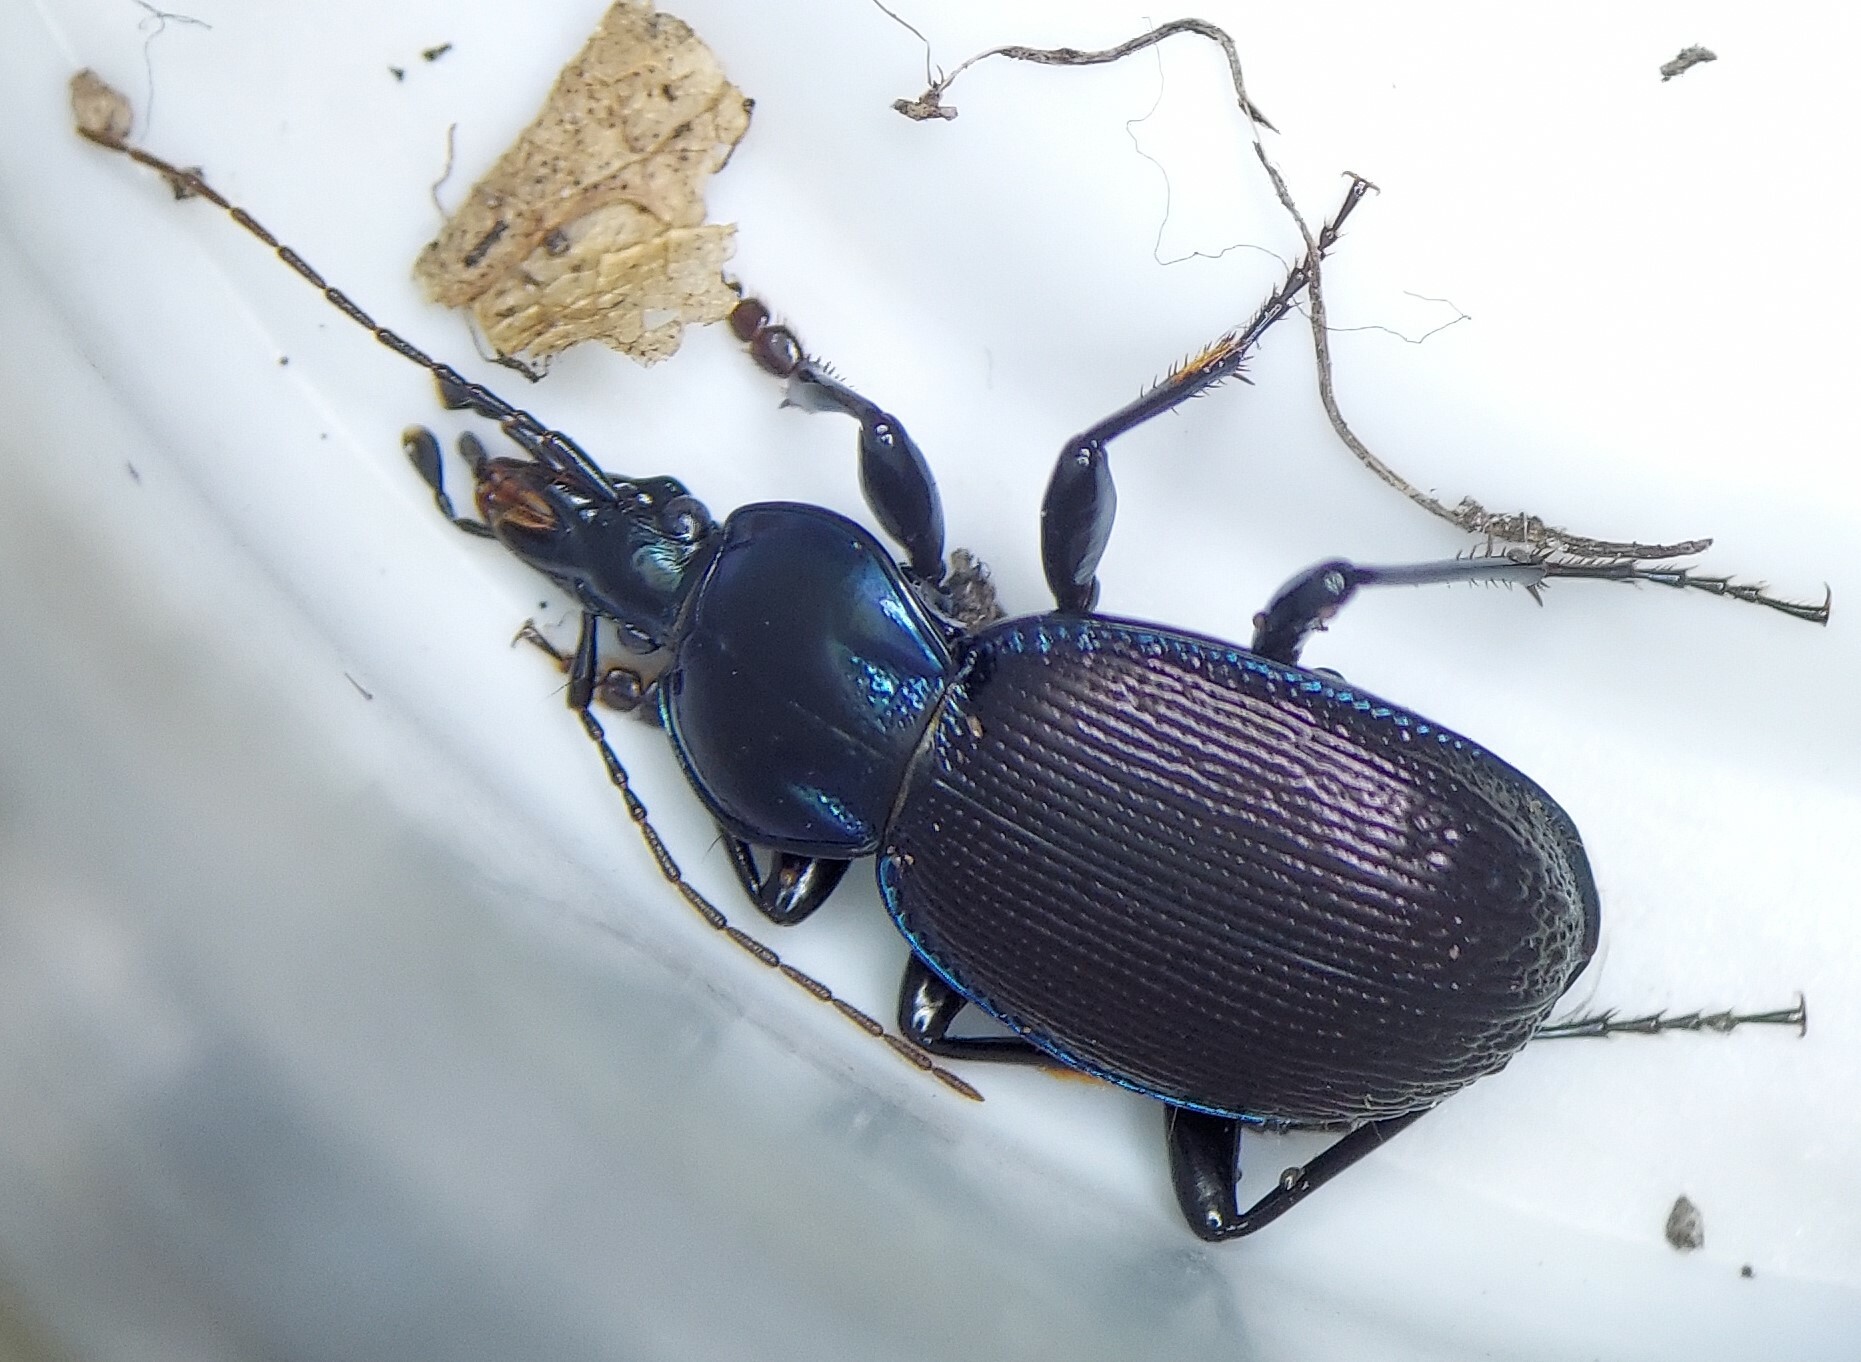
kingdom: Animalia
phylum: Arthropoda
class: Insecta
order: Coleoptera
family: Carabidae
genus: Sphaeroderus
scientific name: Sphaeroderus stenostomus
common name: Small snail-eating ground beetle
